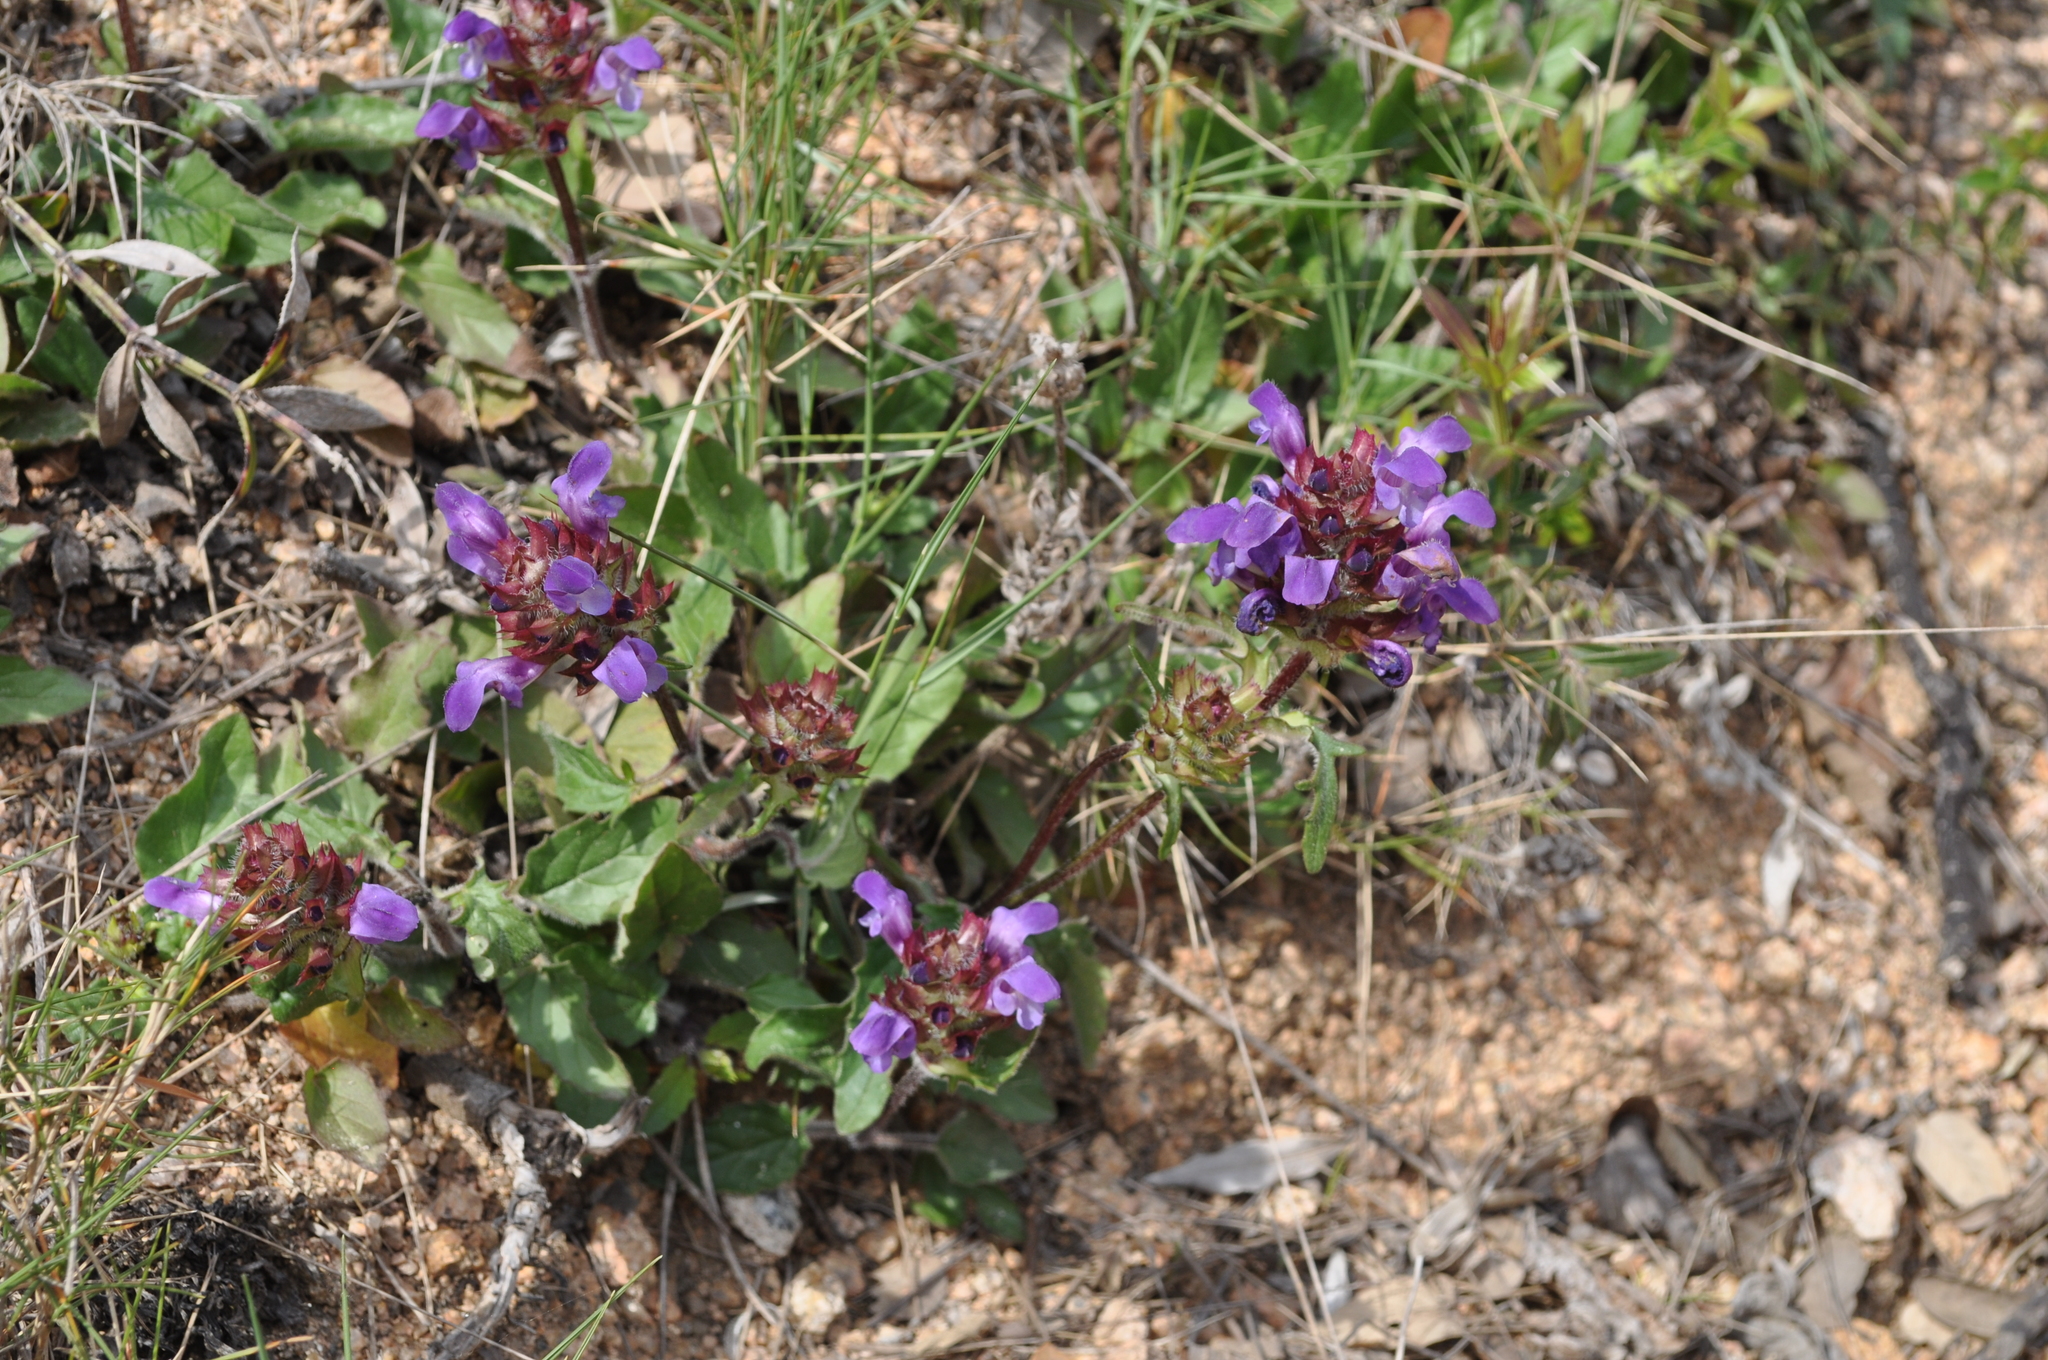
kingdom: Plantae
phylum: Tracheophyta
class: Magnoliopsida
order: Lamiales
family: Lamiaceae
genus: Prunella
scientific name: Prunella grandiflora
